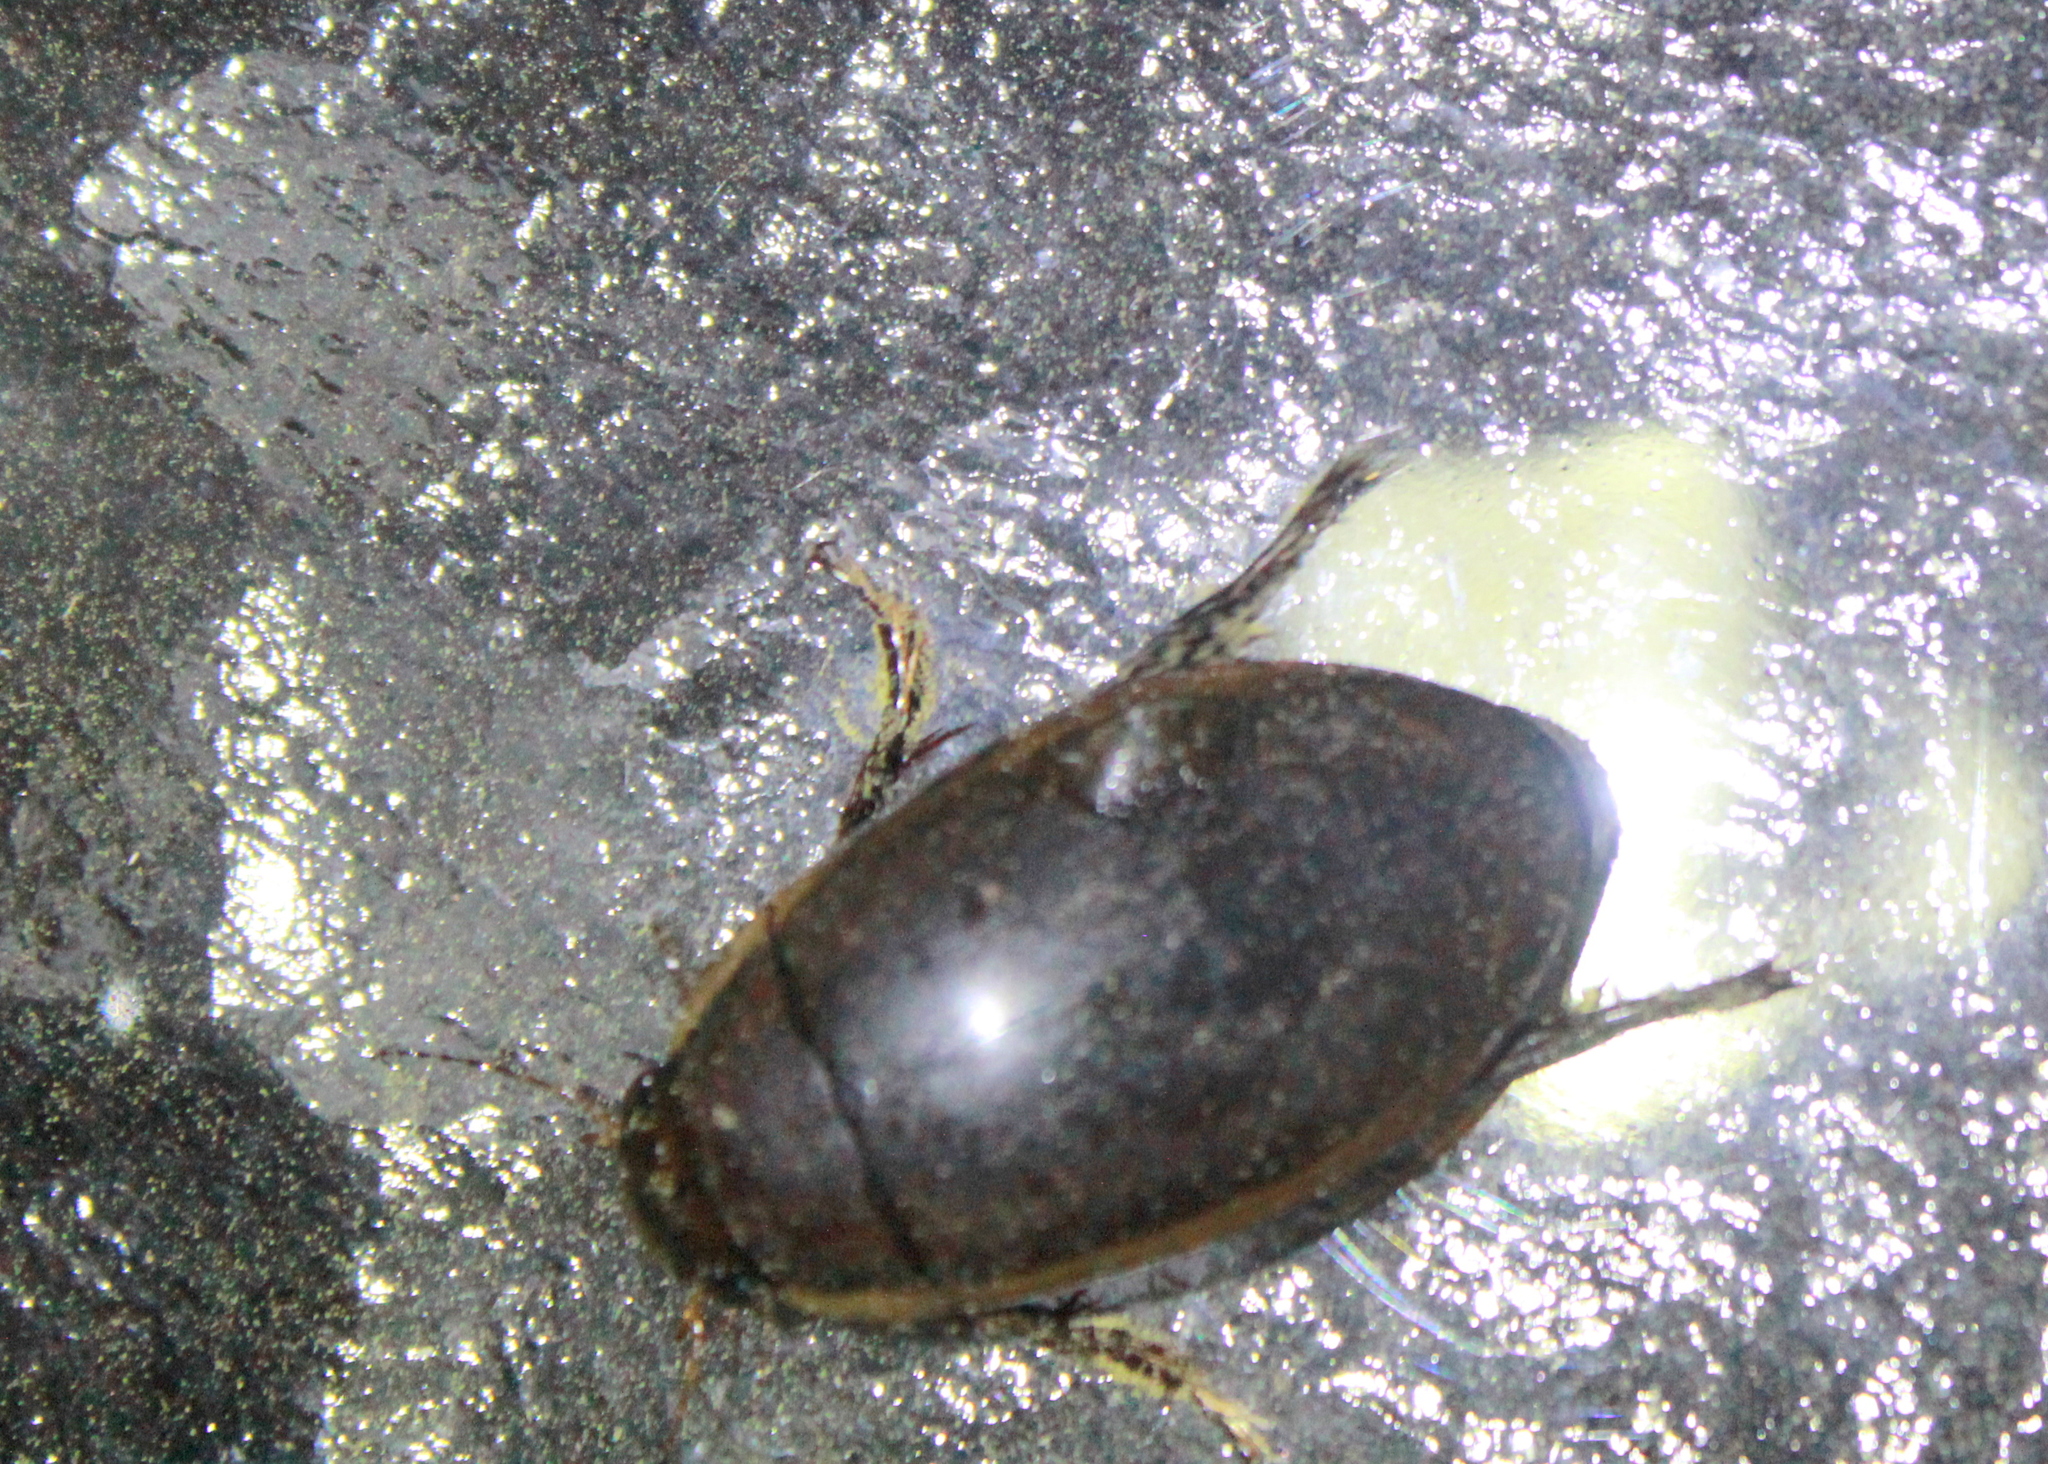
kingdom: Animalia
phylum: Arthropoda
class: Insecta
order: Coleoptera
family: Dytiscidae
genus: Dytiscus
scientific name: Dytiscus verticalis
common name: Vertical diving beetle
